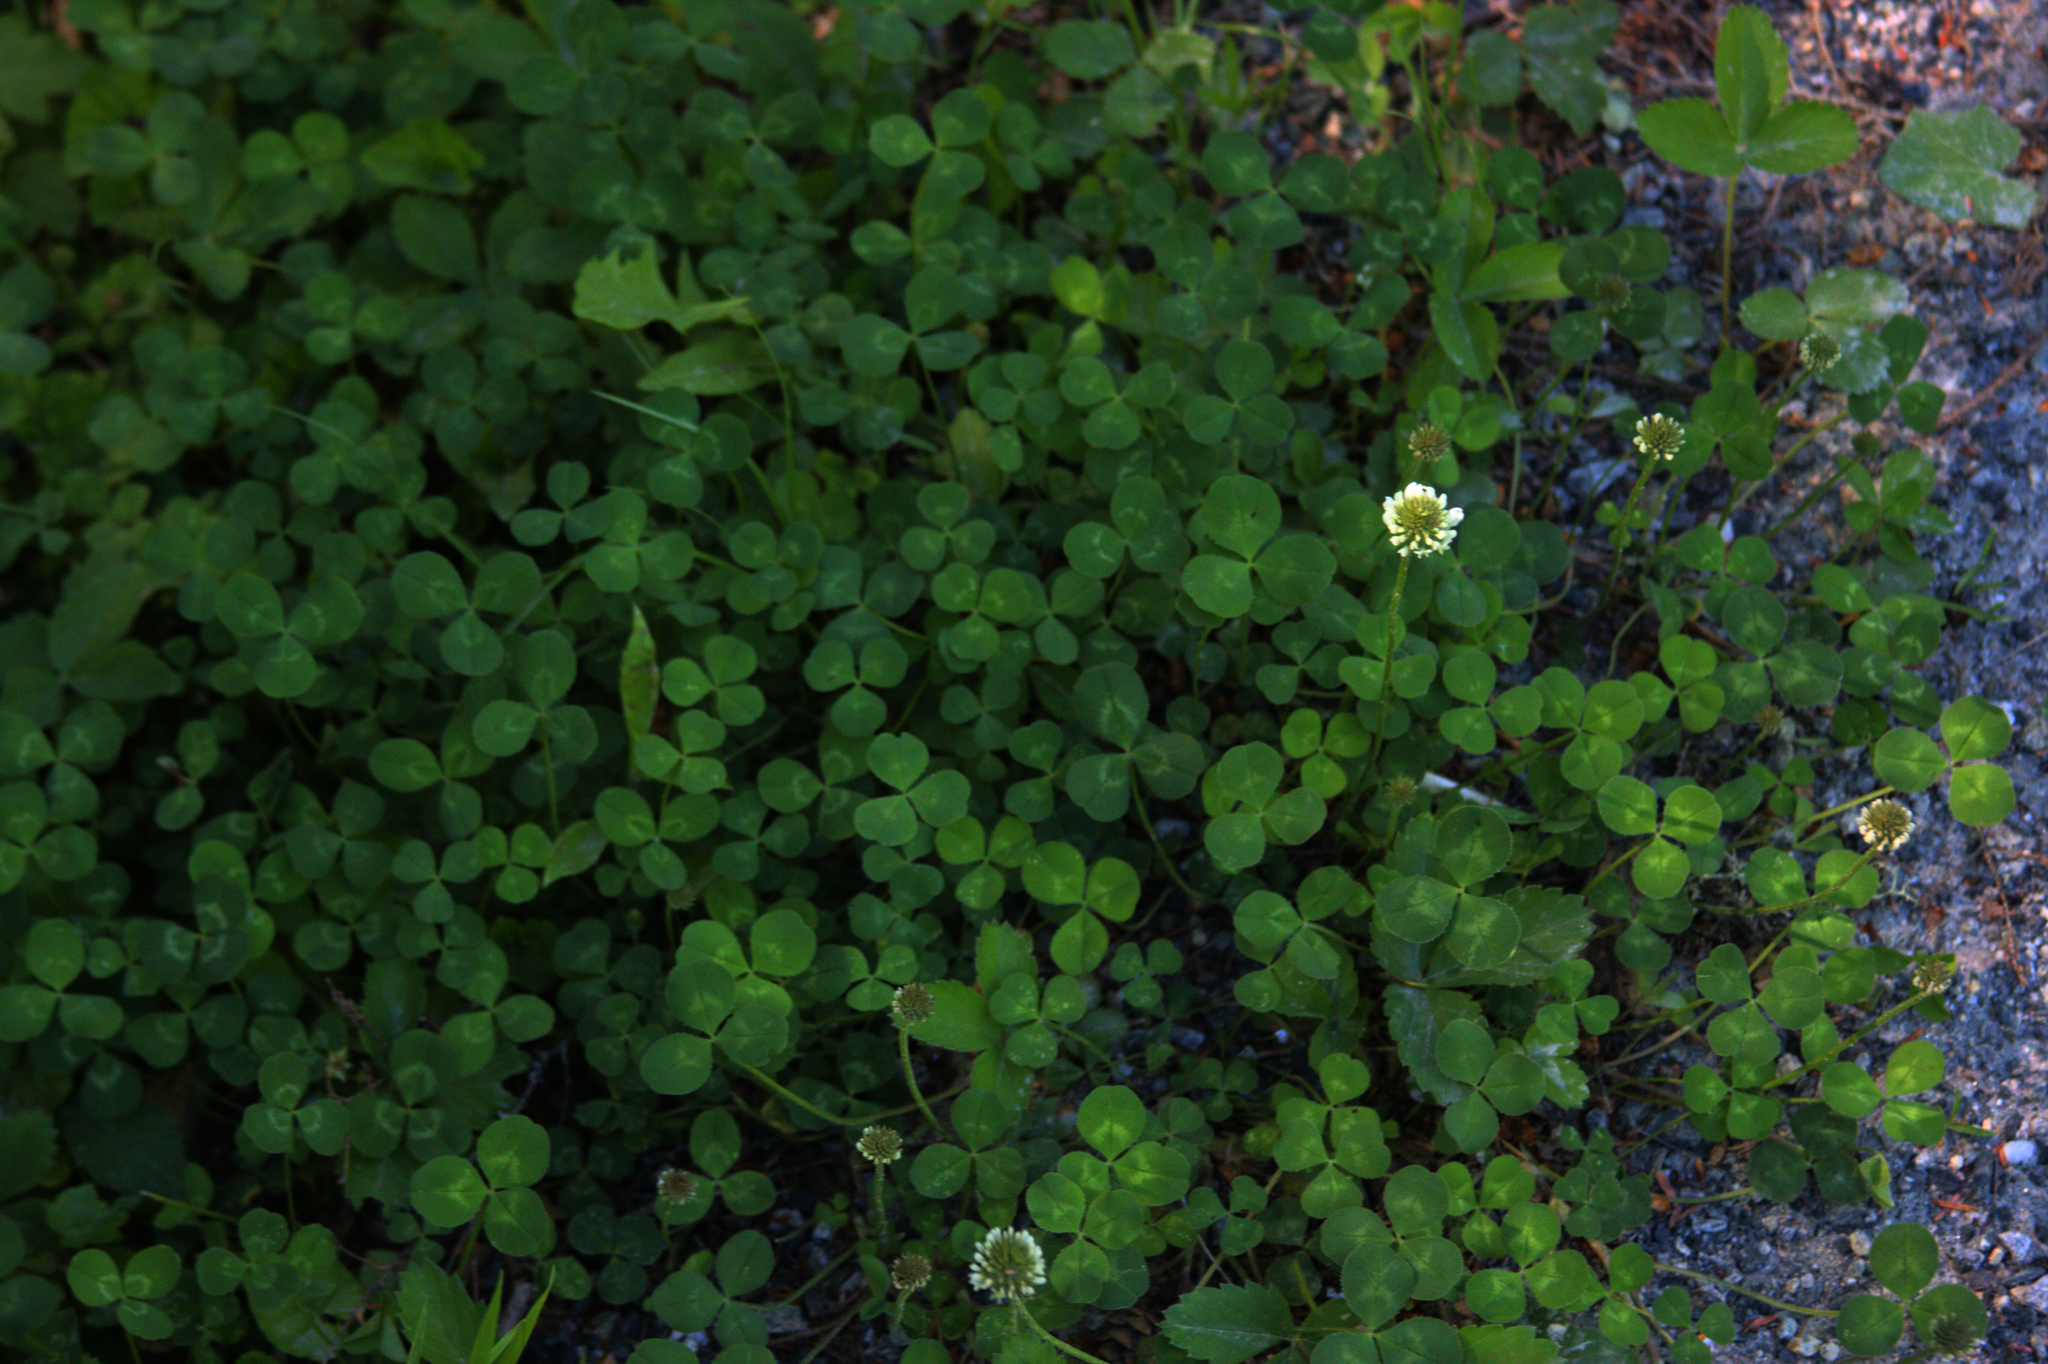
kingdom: Plantae
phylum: Tracheophyta
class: Magnoliopsida
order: Fabales
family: Fabaceae
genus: Trifolium
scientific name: Trifolium repens
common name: White clover
